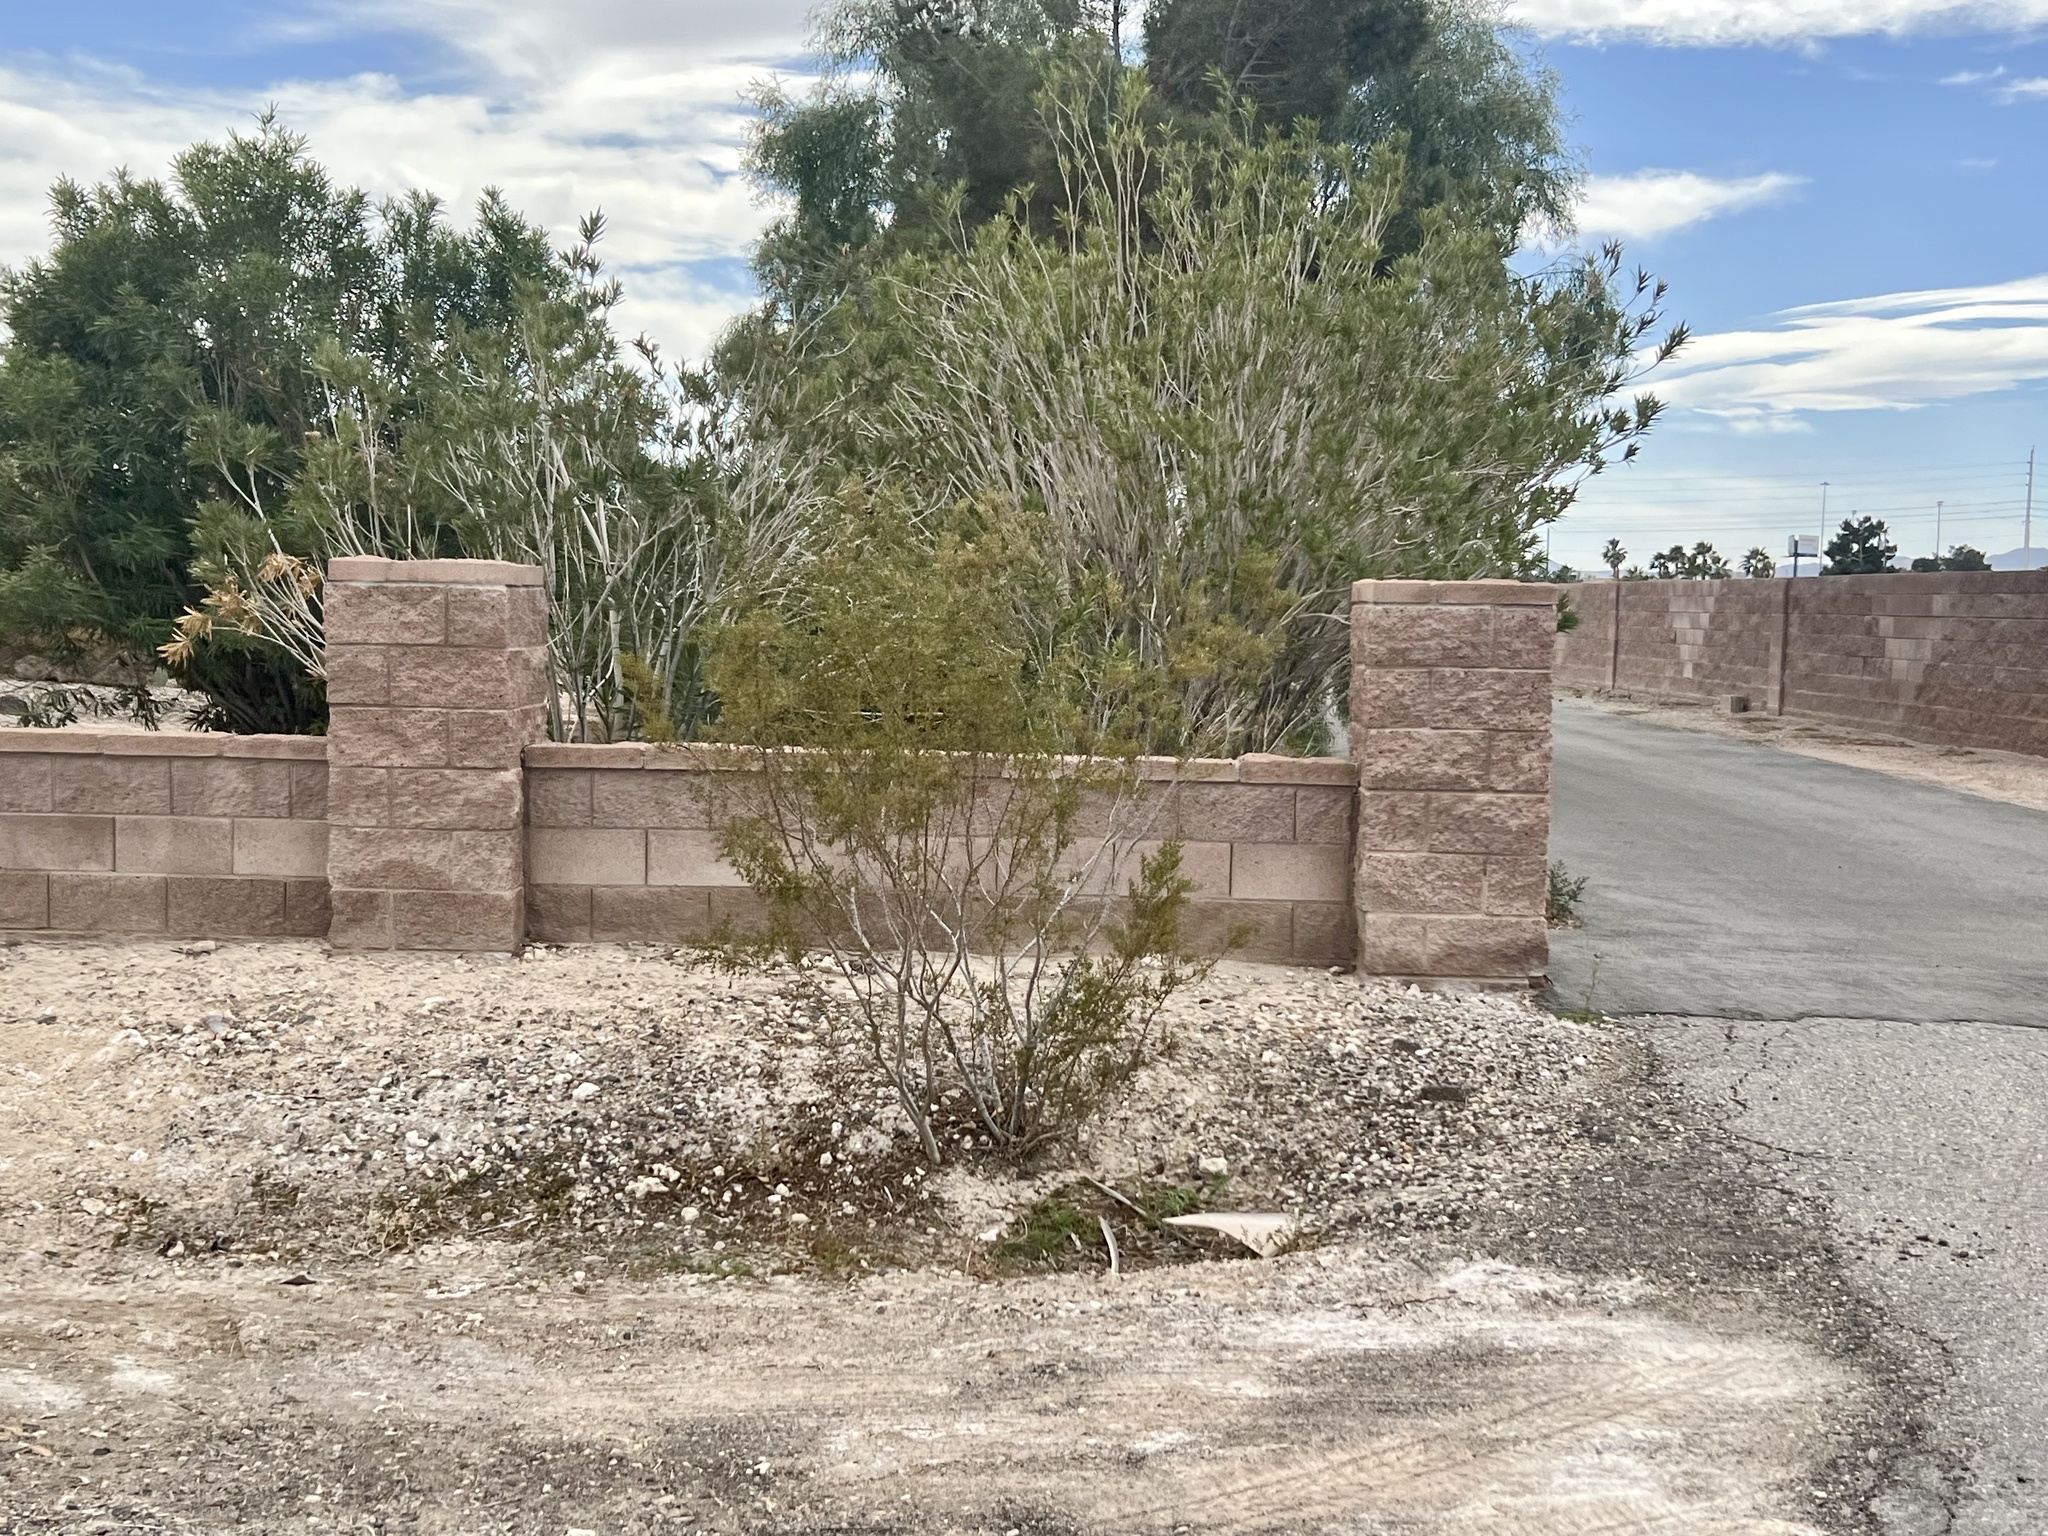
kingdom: Plantae
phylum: Tracheophyta
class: Magnoliopsida
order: Zygophyllales
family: Zygophyllaceae
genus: Larrea
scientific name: Larrea tridentata
